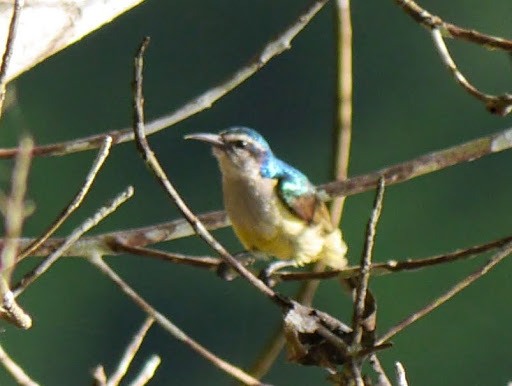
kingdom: Animalia
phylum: Chordata
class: Aves
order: Passeriformes
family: Nectariniidae
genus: Anthreptes
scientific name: Anthreptes aurantius
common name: Violet-tailed sunbird
